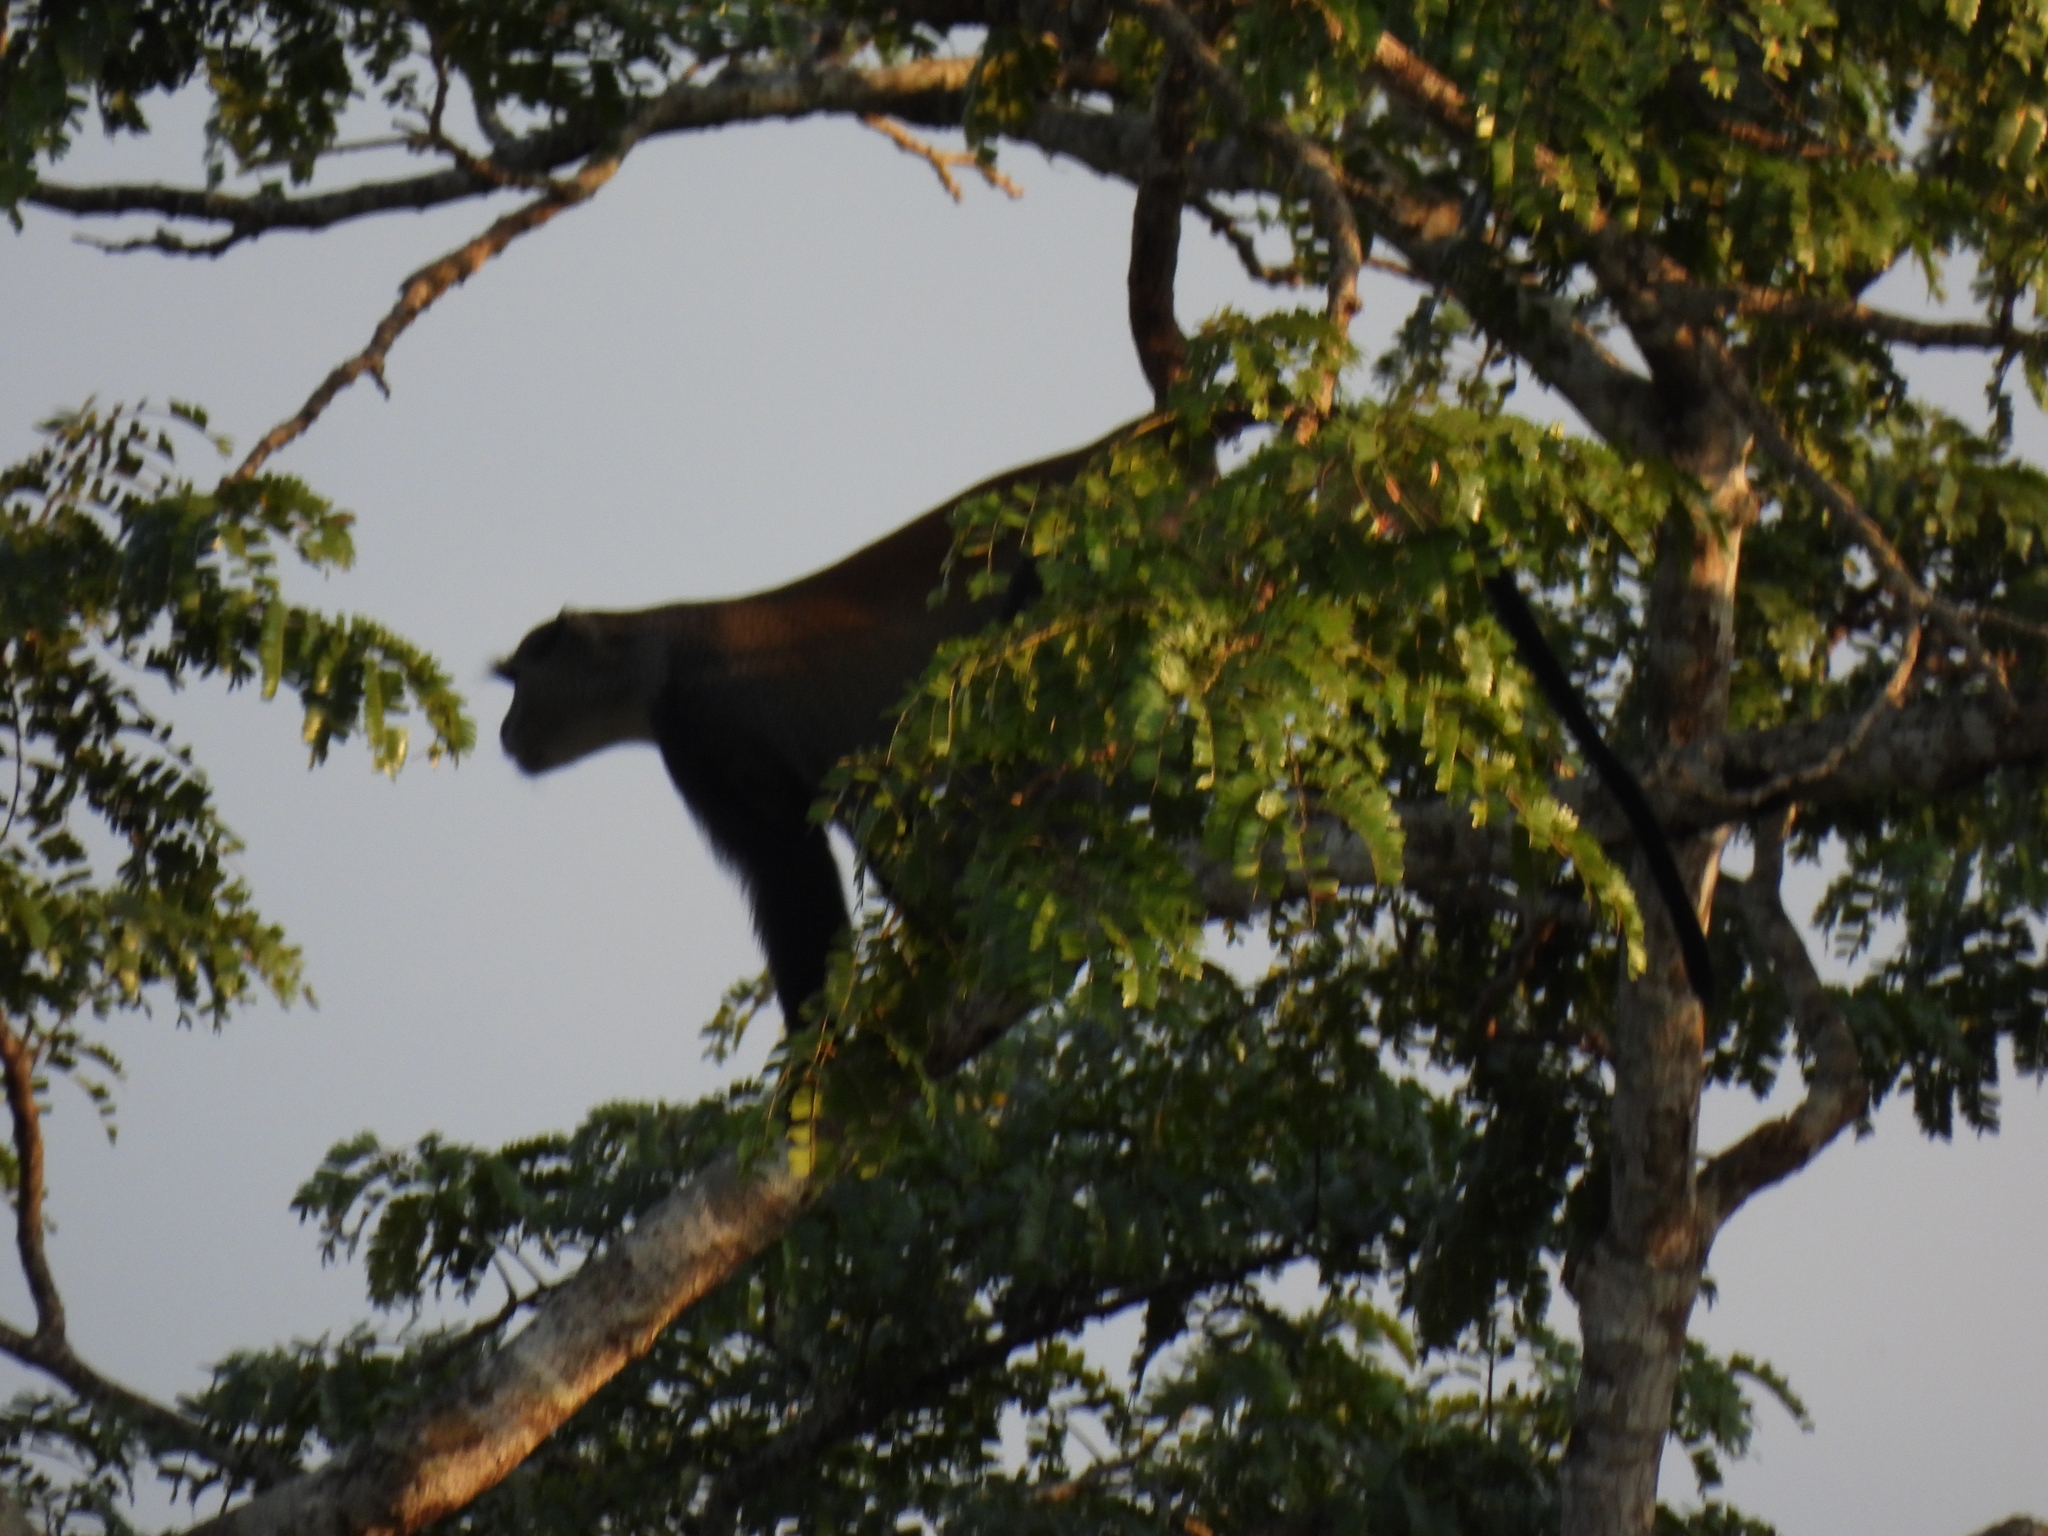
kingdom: Animalia
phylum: Chordata
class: Mammalia
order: Primates
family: Cercopithecidae
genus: Cercopithecus
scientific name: Cercopithecus mitis
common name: Blue monkey
